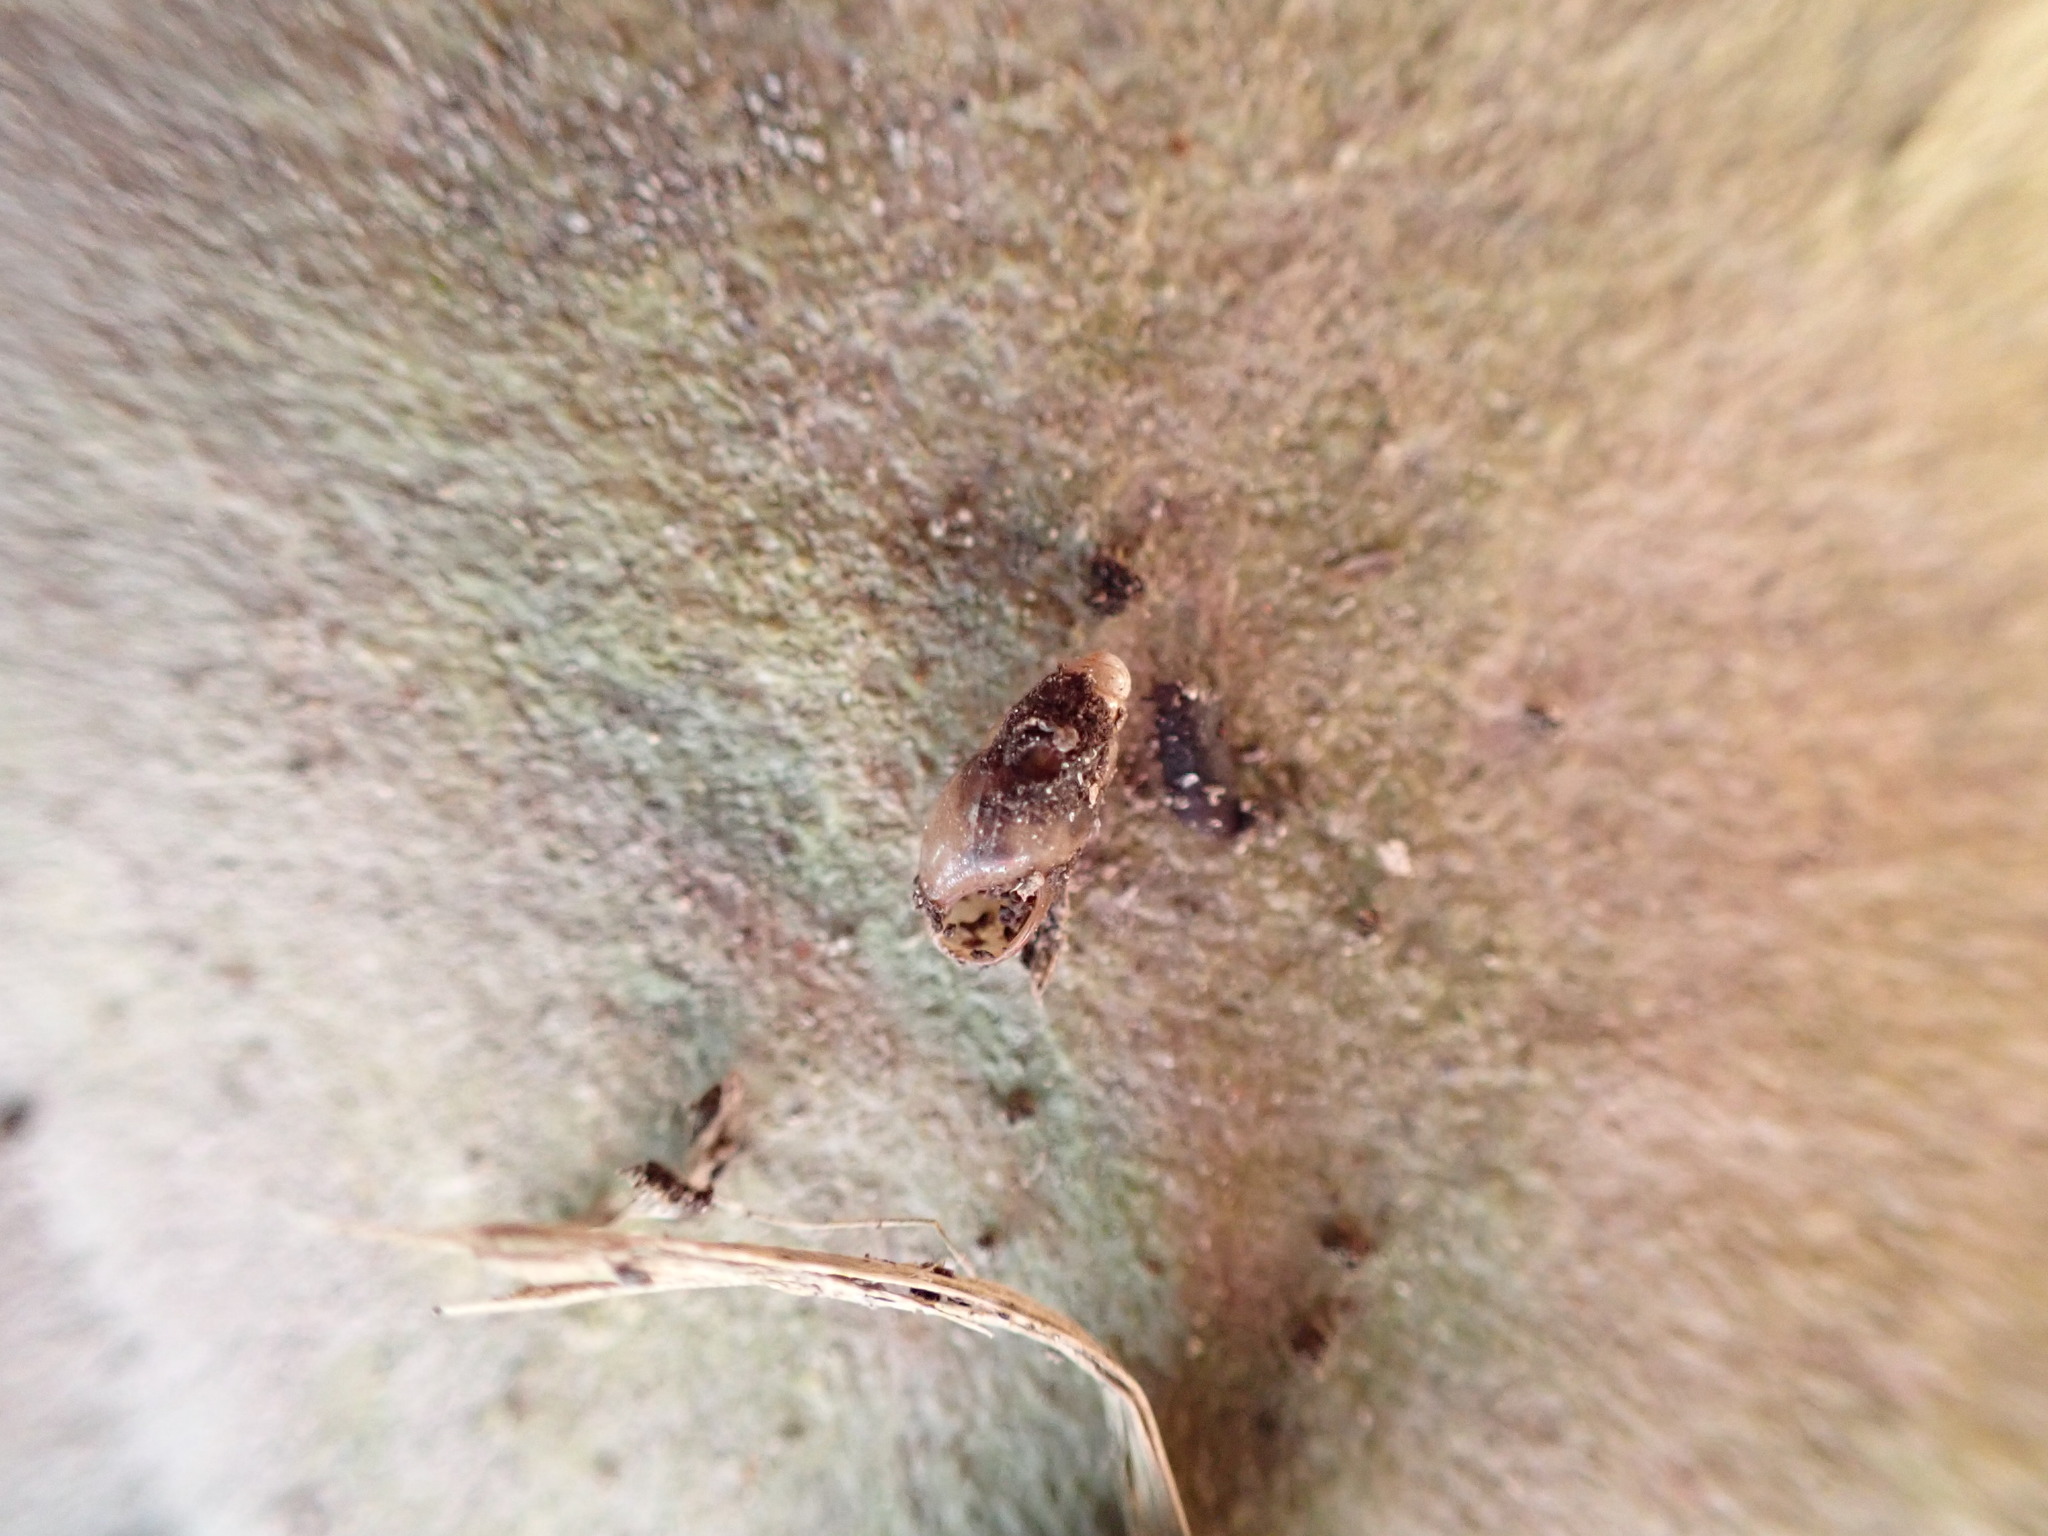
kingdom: Animalia
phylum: Mollusca
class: Gastropoda
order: Stylommatophora
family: Cochlicopidae
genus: Cochlicopa
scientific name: Cochlicopa lubrica
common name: Glossy pillar snail
